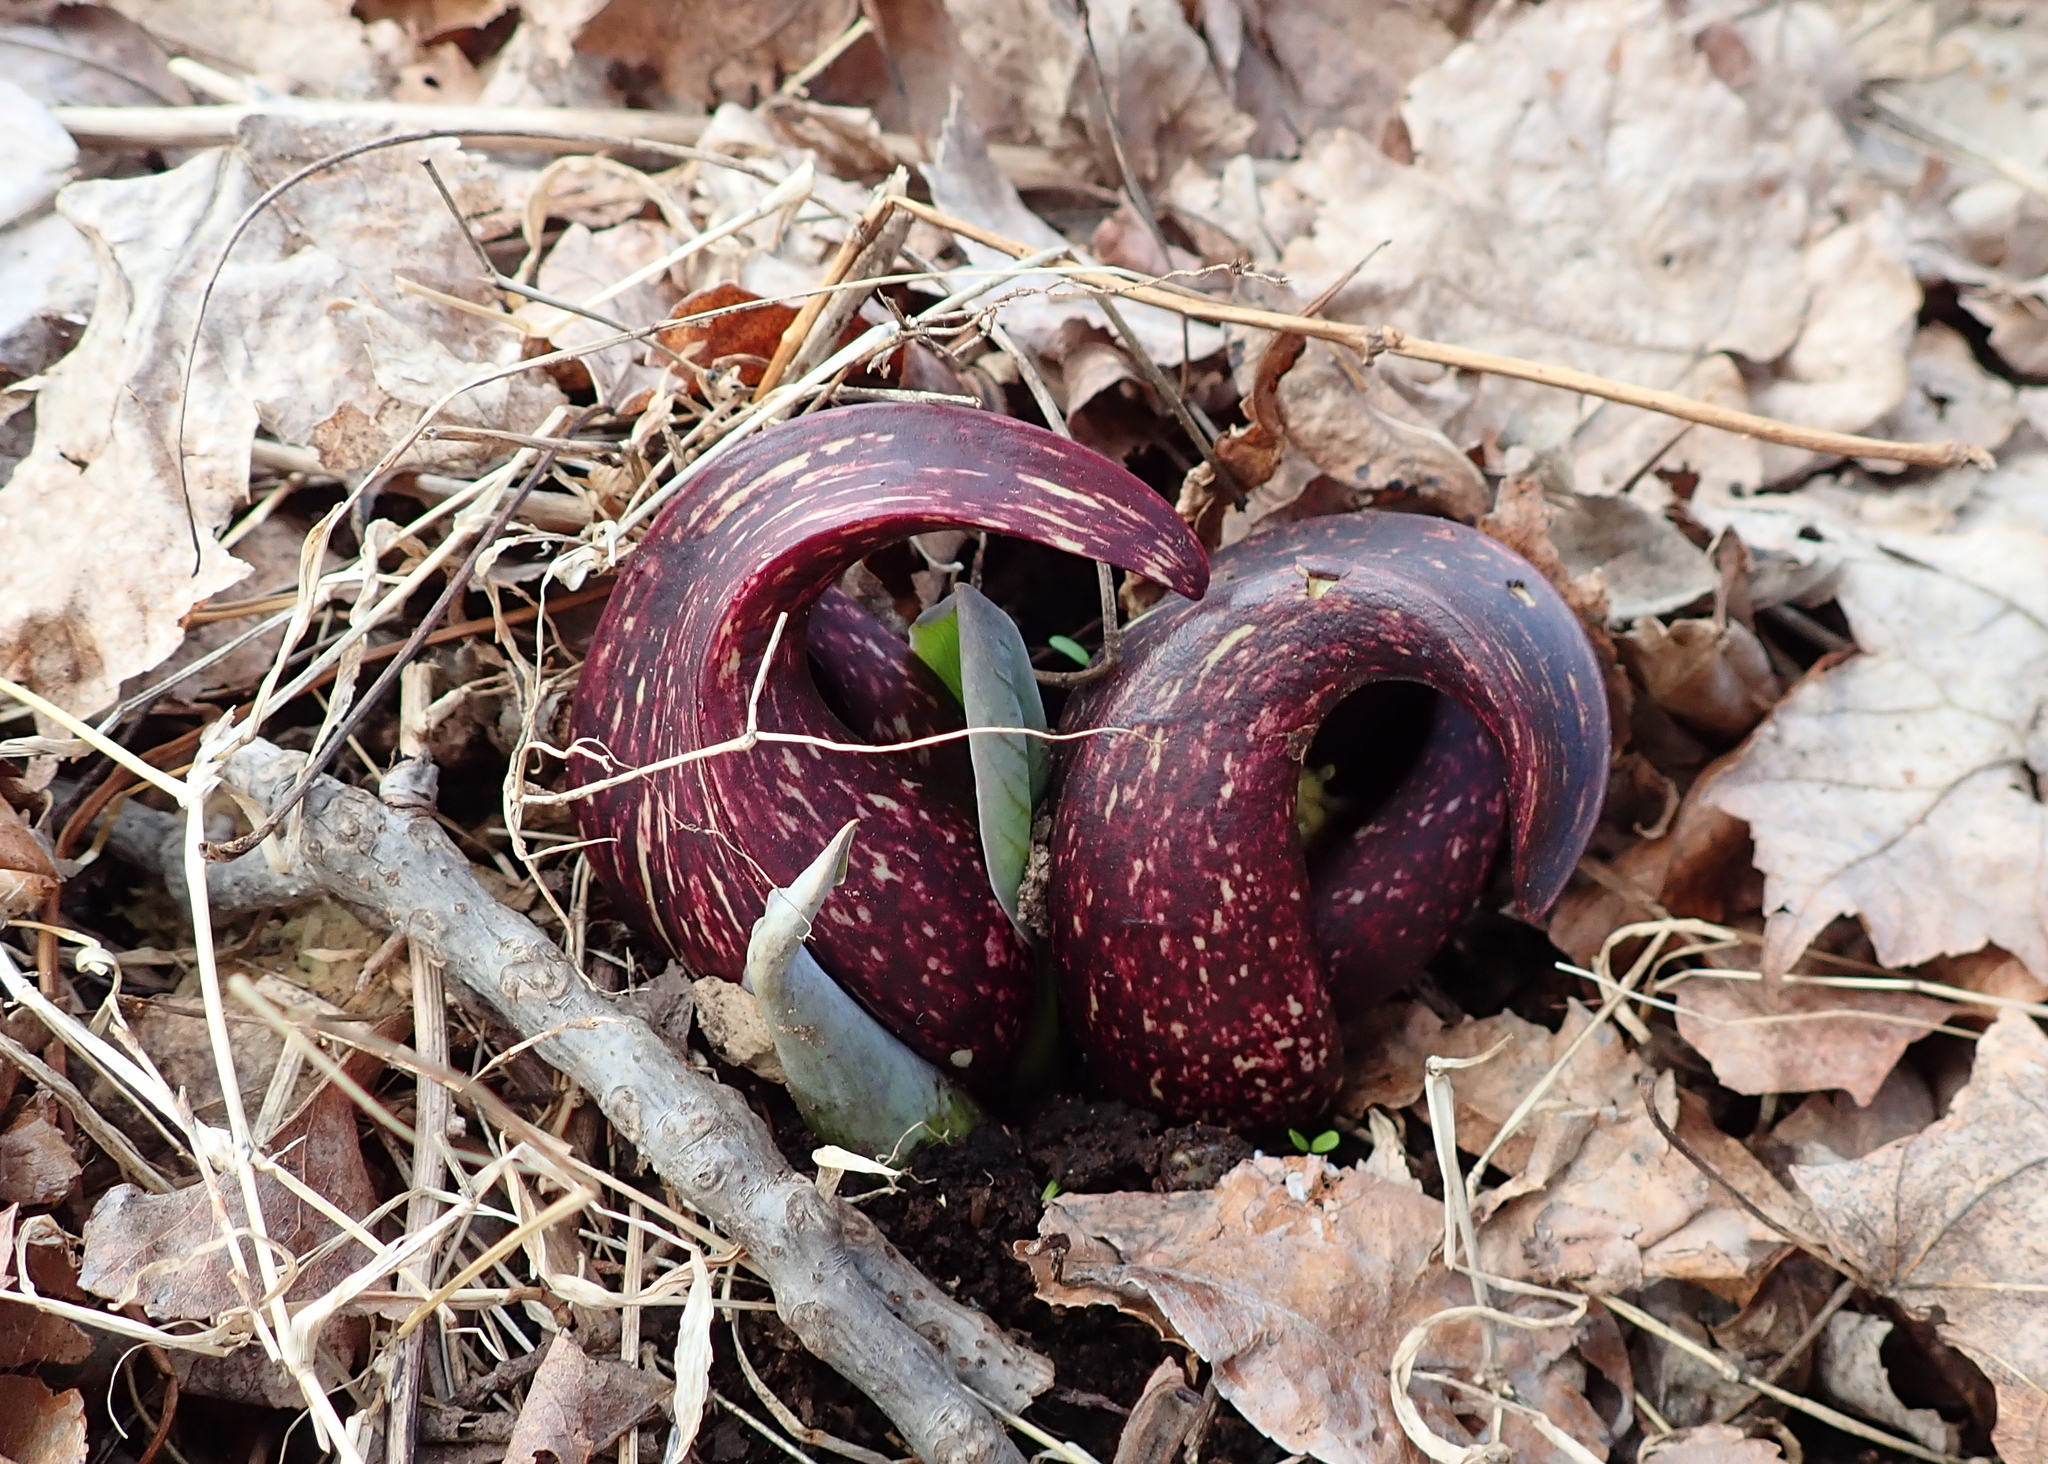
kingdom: Plantae
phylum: Tracheophyta
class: Liliopsida
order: Alismatales
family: Araceae
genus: Symplocarpus
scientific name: Symplocarpus foetidus
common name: Eastern skunk cabbage
